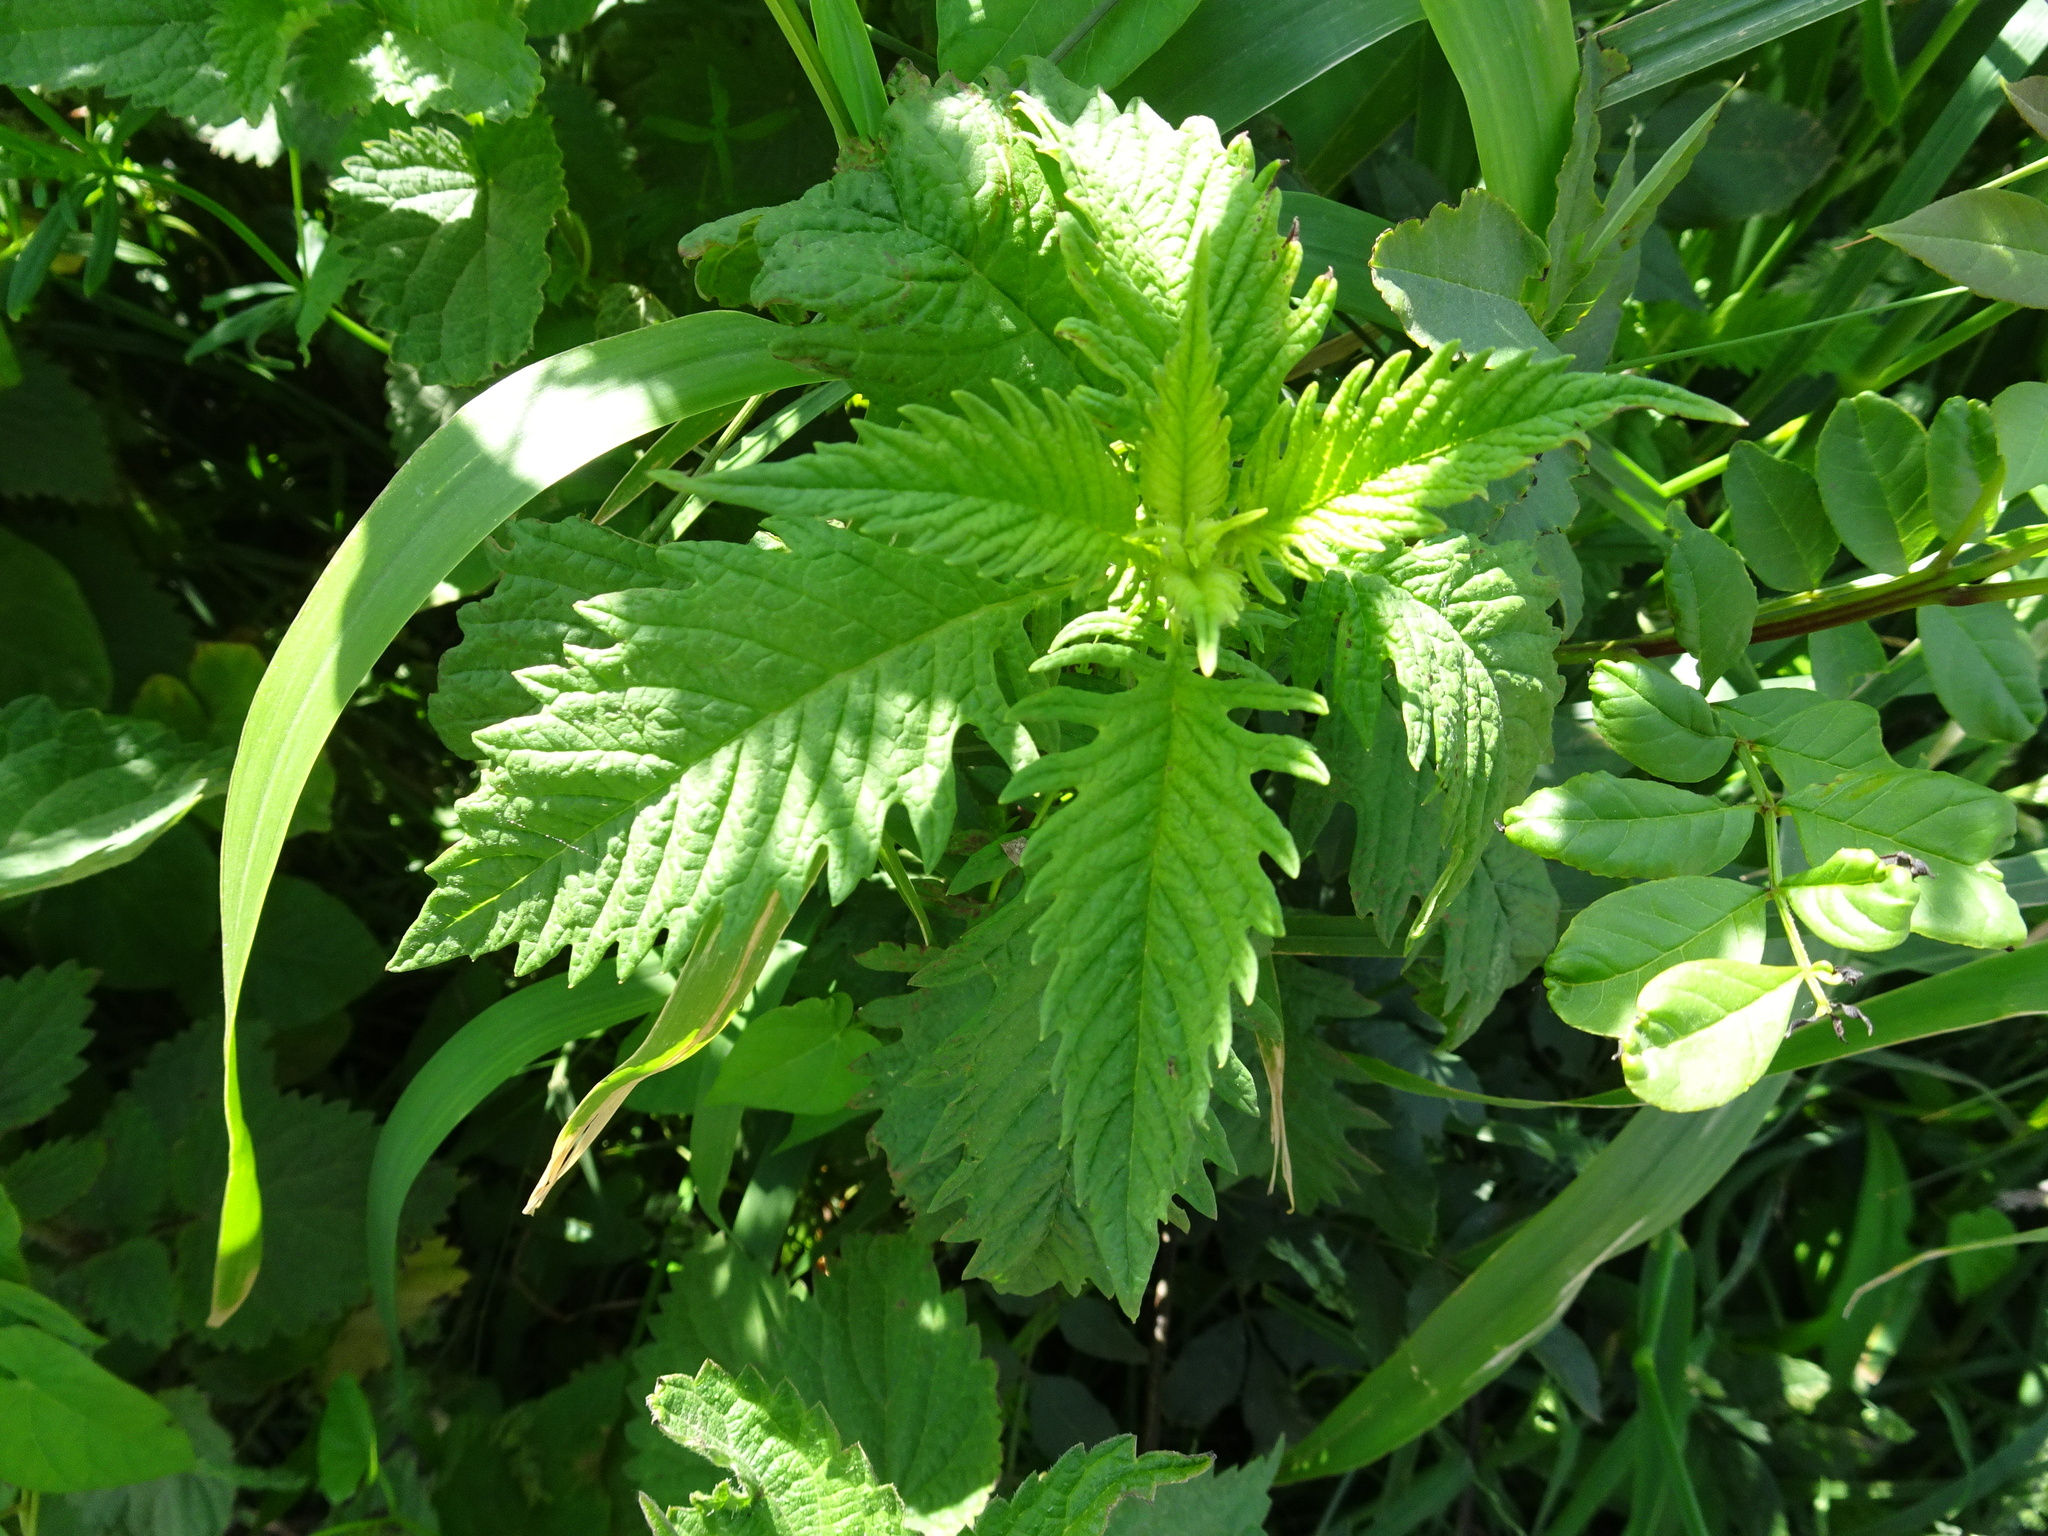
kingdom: Plantae
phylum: Tracheophyta
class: Magnoliopsida
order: Lamiales
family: Lamiaceae
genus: Lycopus
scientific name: Lycopus europaeus
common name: European bugleweed
